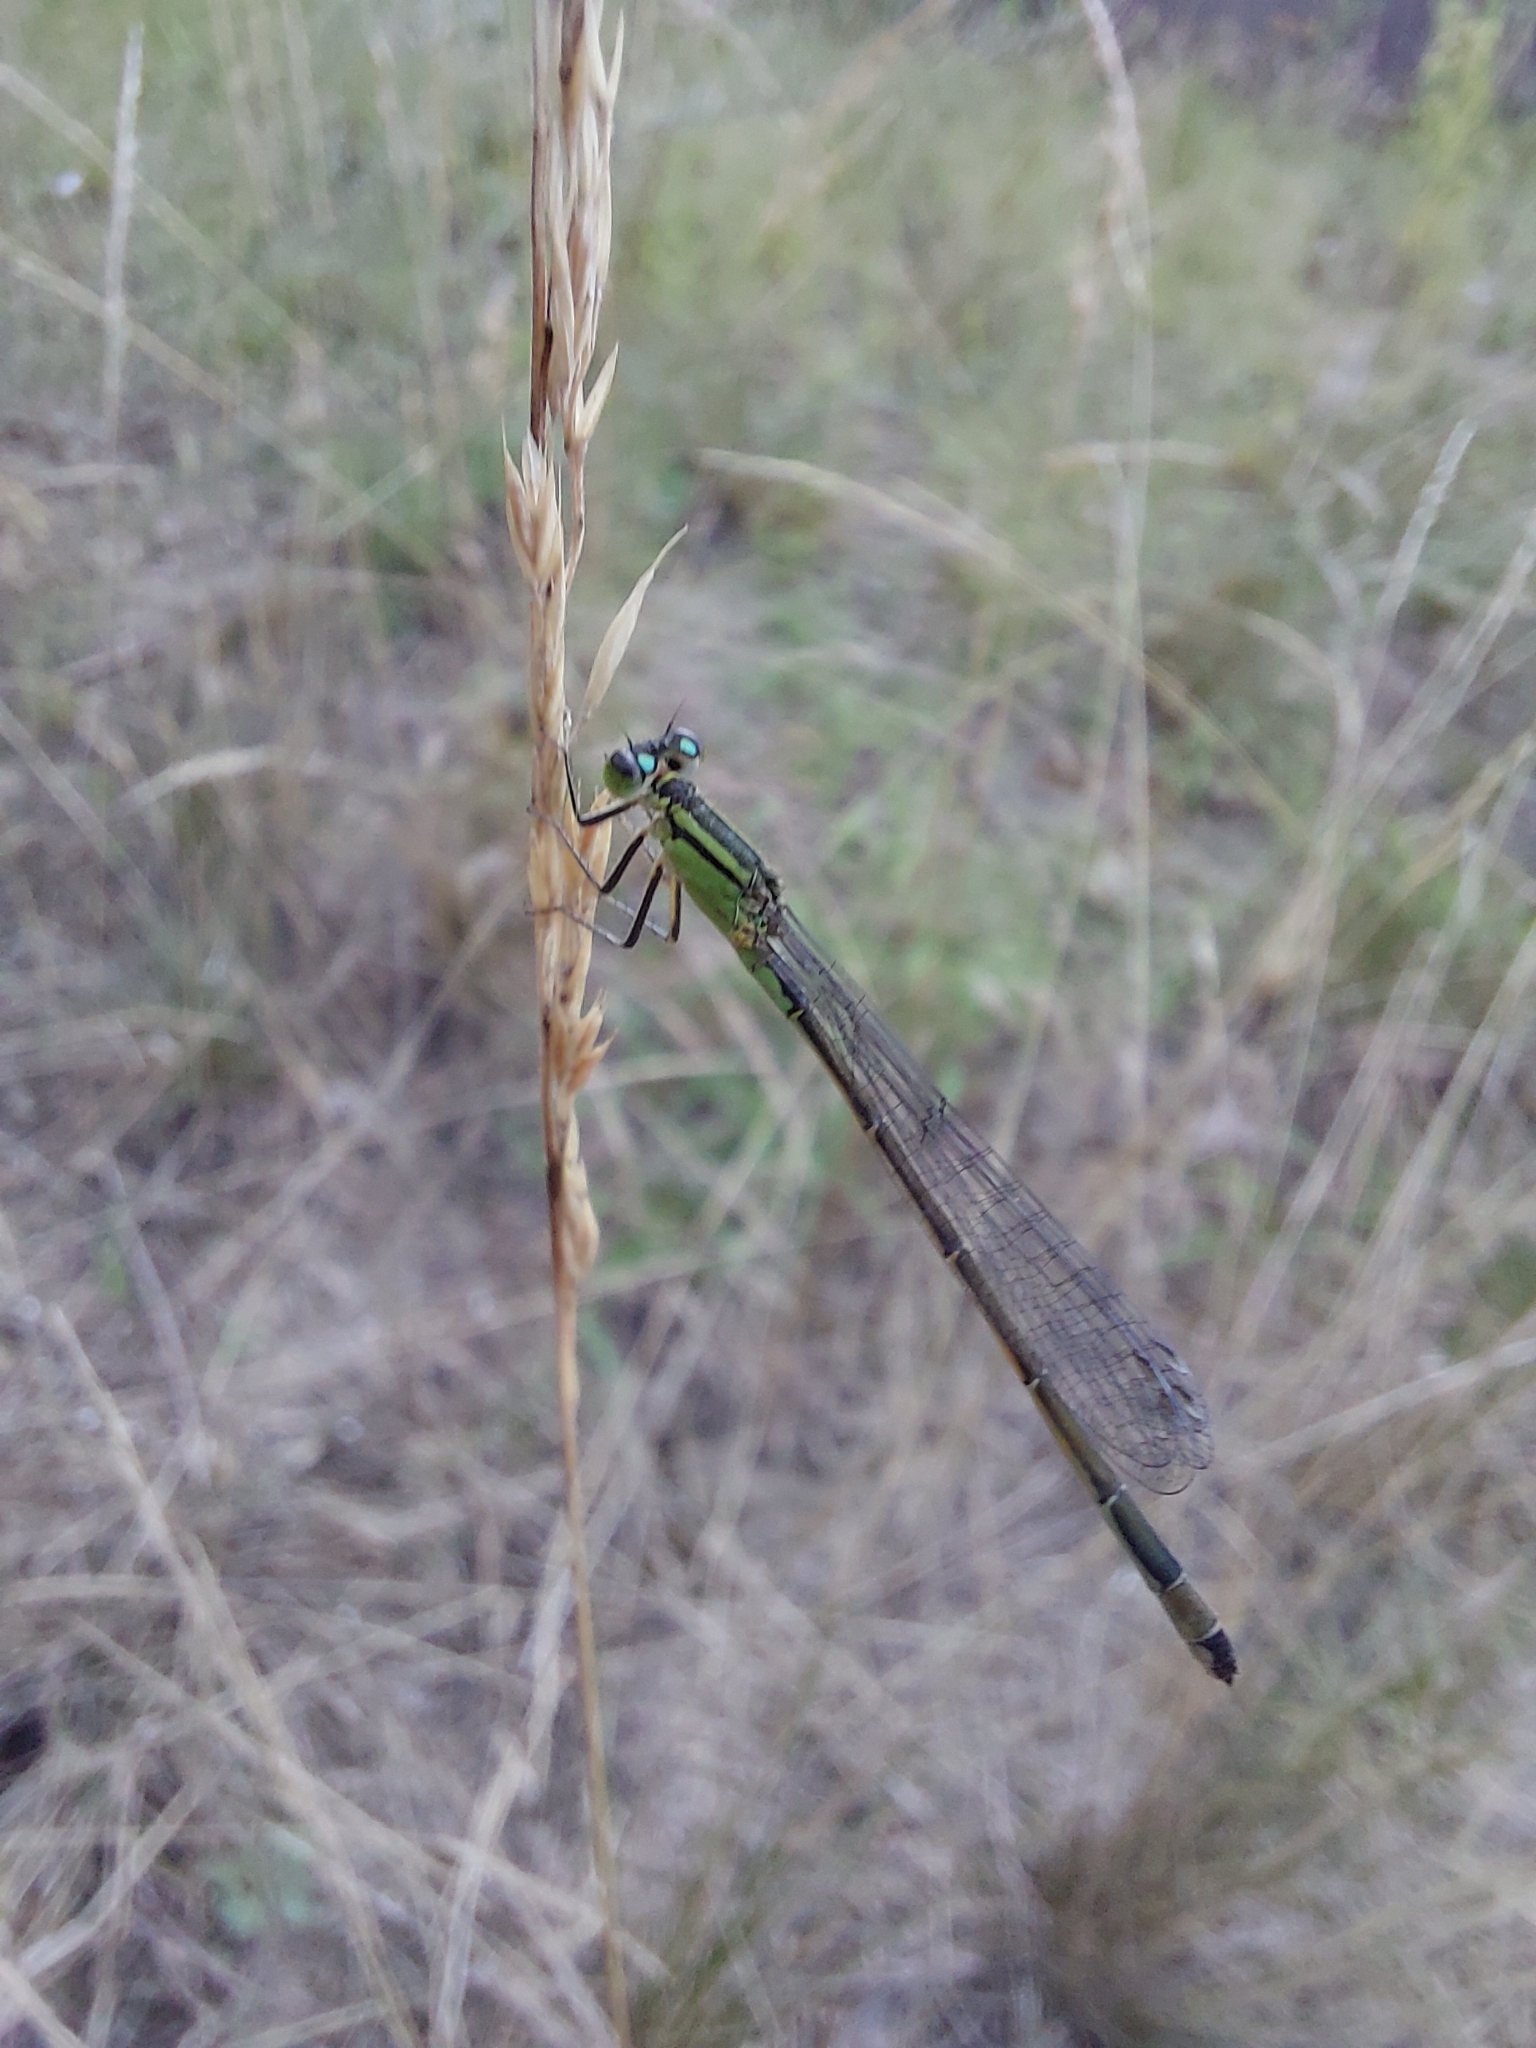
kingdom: Animalia
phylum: Arthropoda
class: Insecta
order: Odonata
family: Coenagrionidae
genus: Ischnura
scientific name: Ischnura elegans
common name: Blue-tailed damselfly
